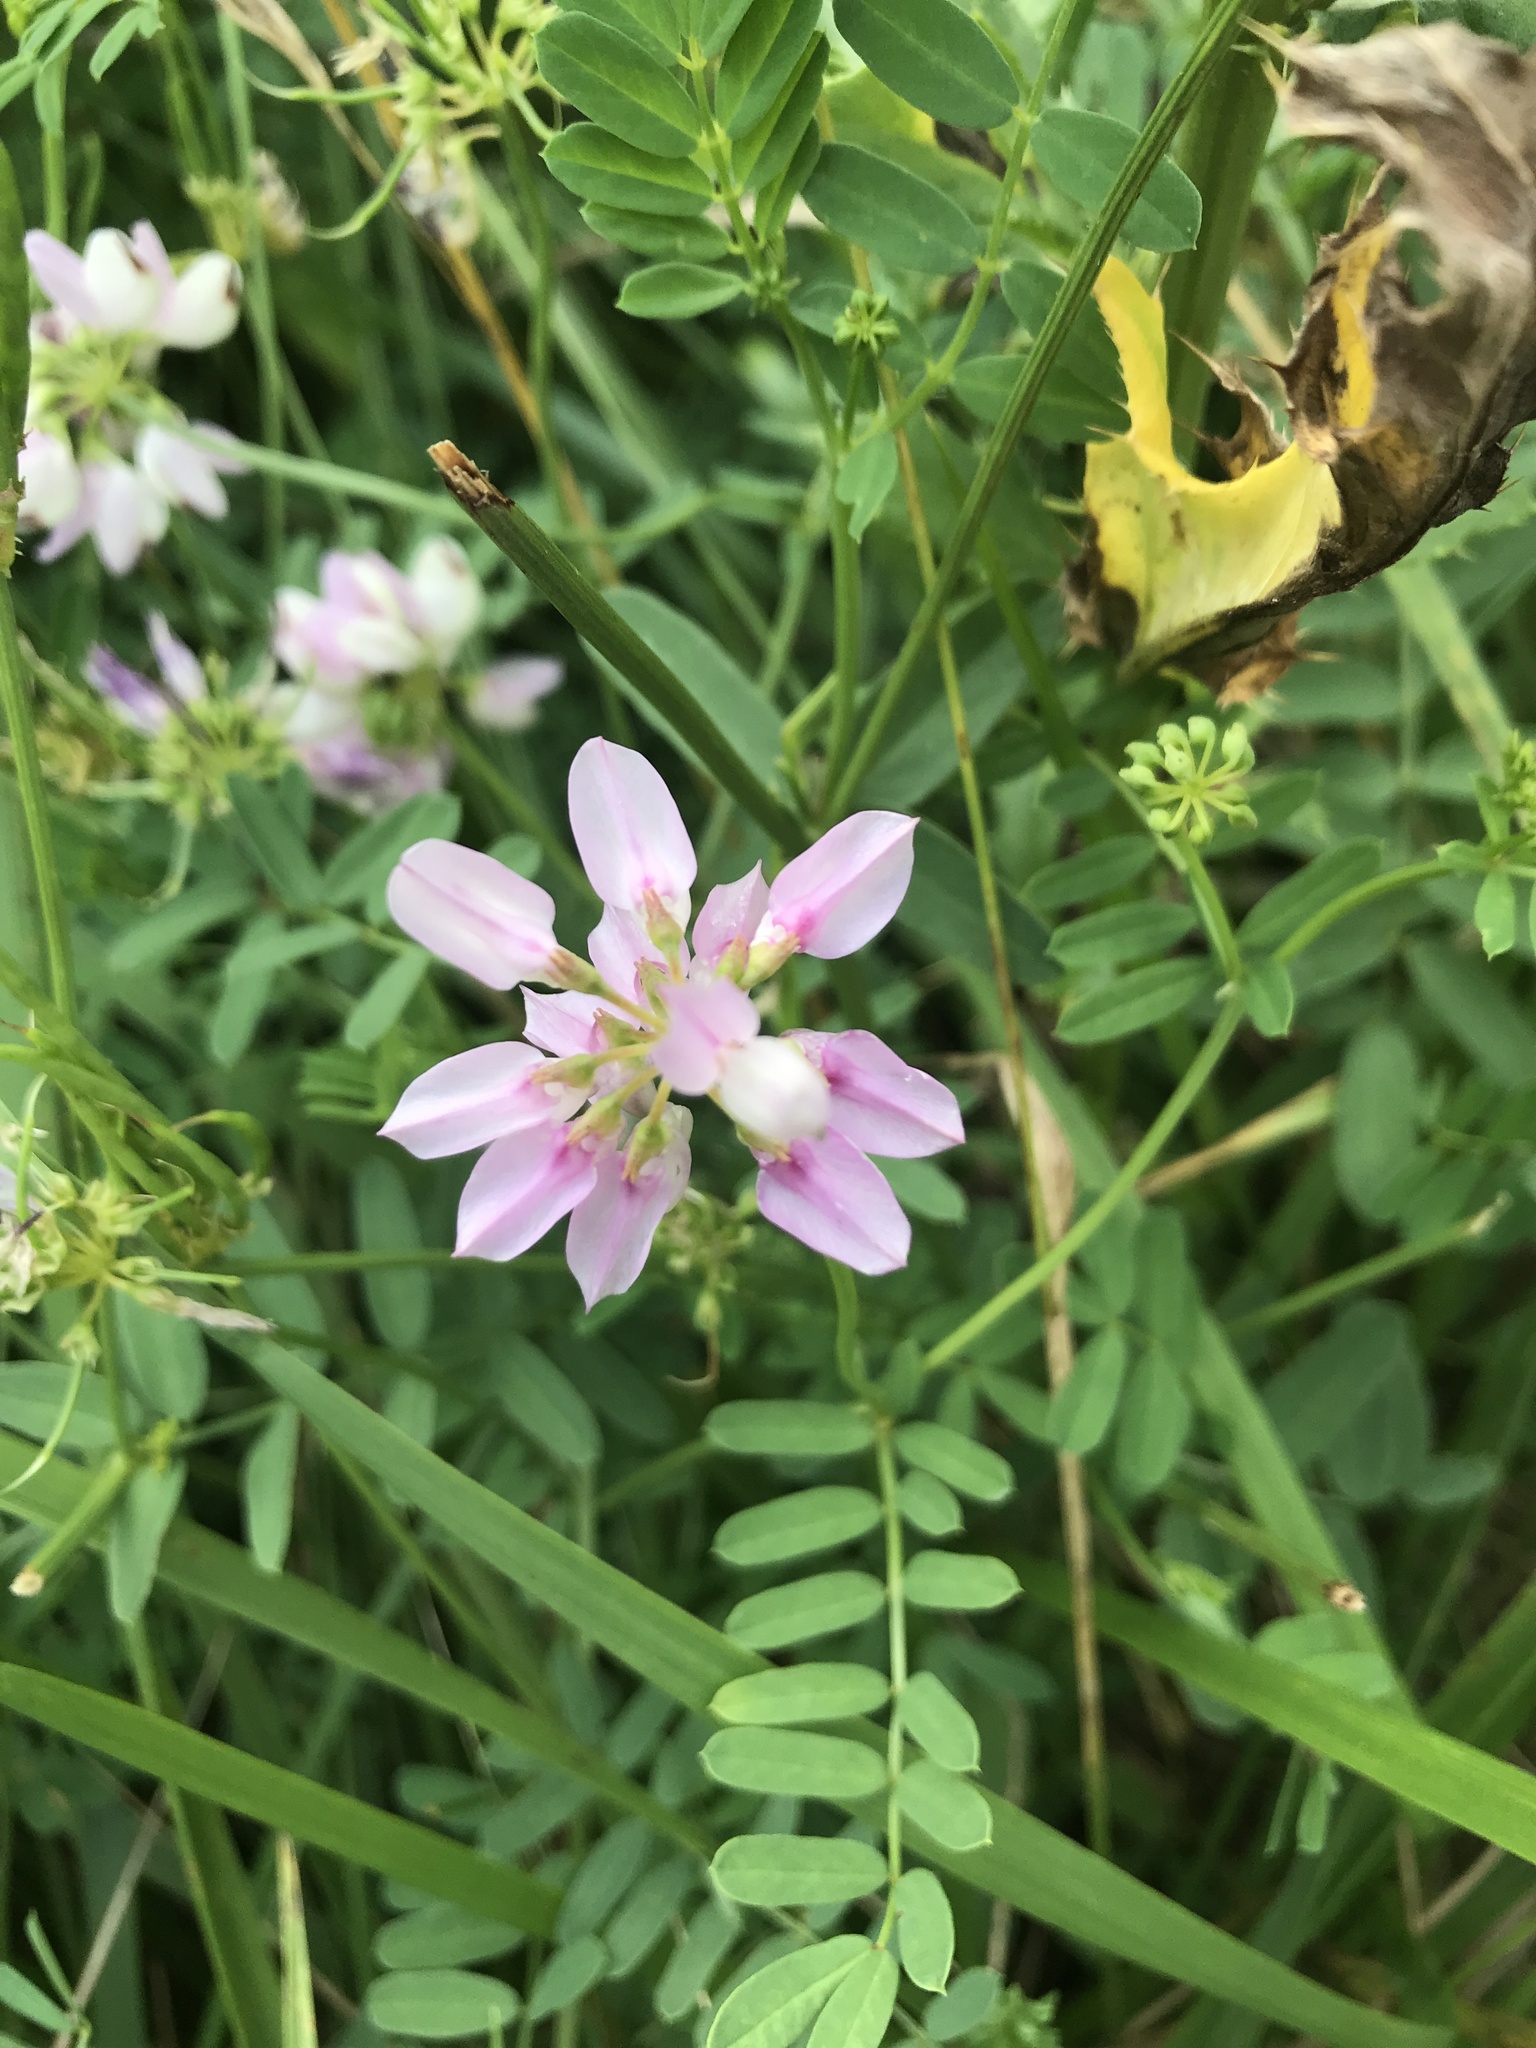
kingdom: Plantae
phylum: Tracheophyta
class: Magnoliopsida
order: Fabales
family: Fabaceae
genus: Coronilla
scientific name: Coronilla varia
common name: Crownvetch
